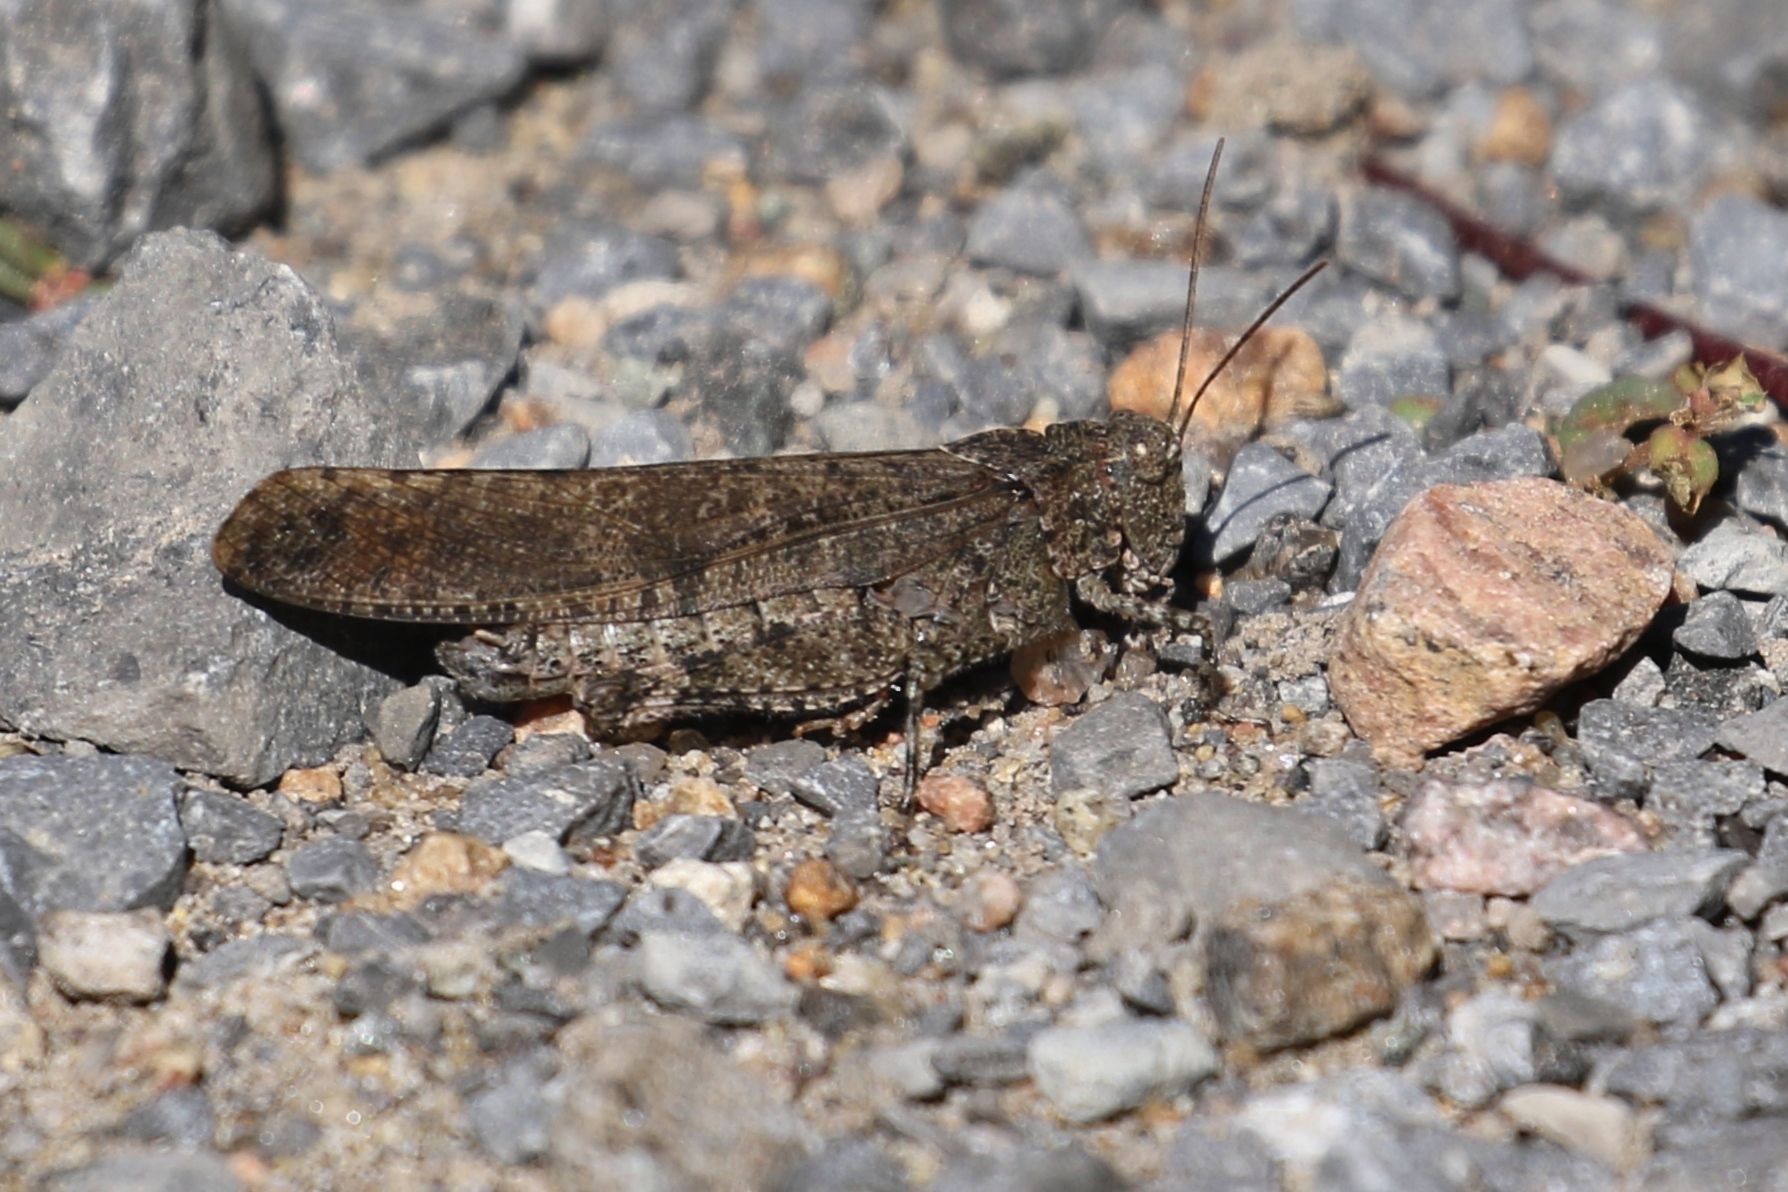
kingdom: Animalia
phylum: Arthropoda
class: Insecta
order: Orthoptera
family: Acrididae
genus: Dissosteira
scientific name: Dissosteira carolina
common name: Carolina grasshopper
